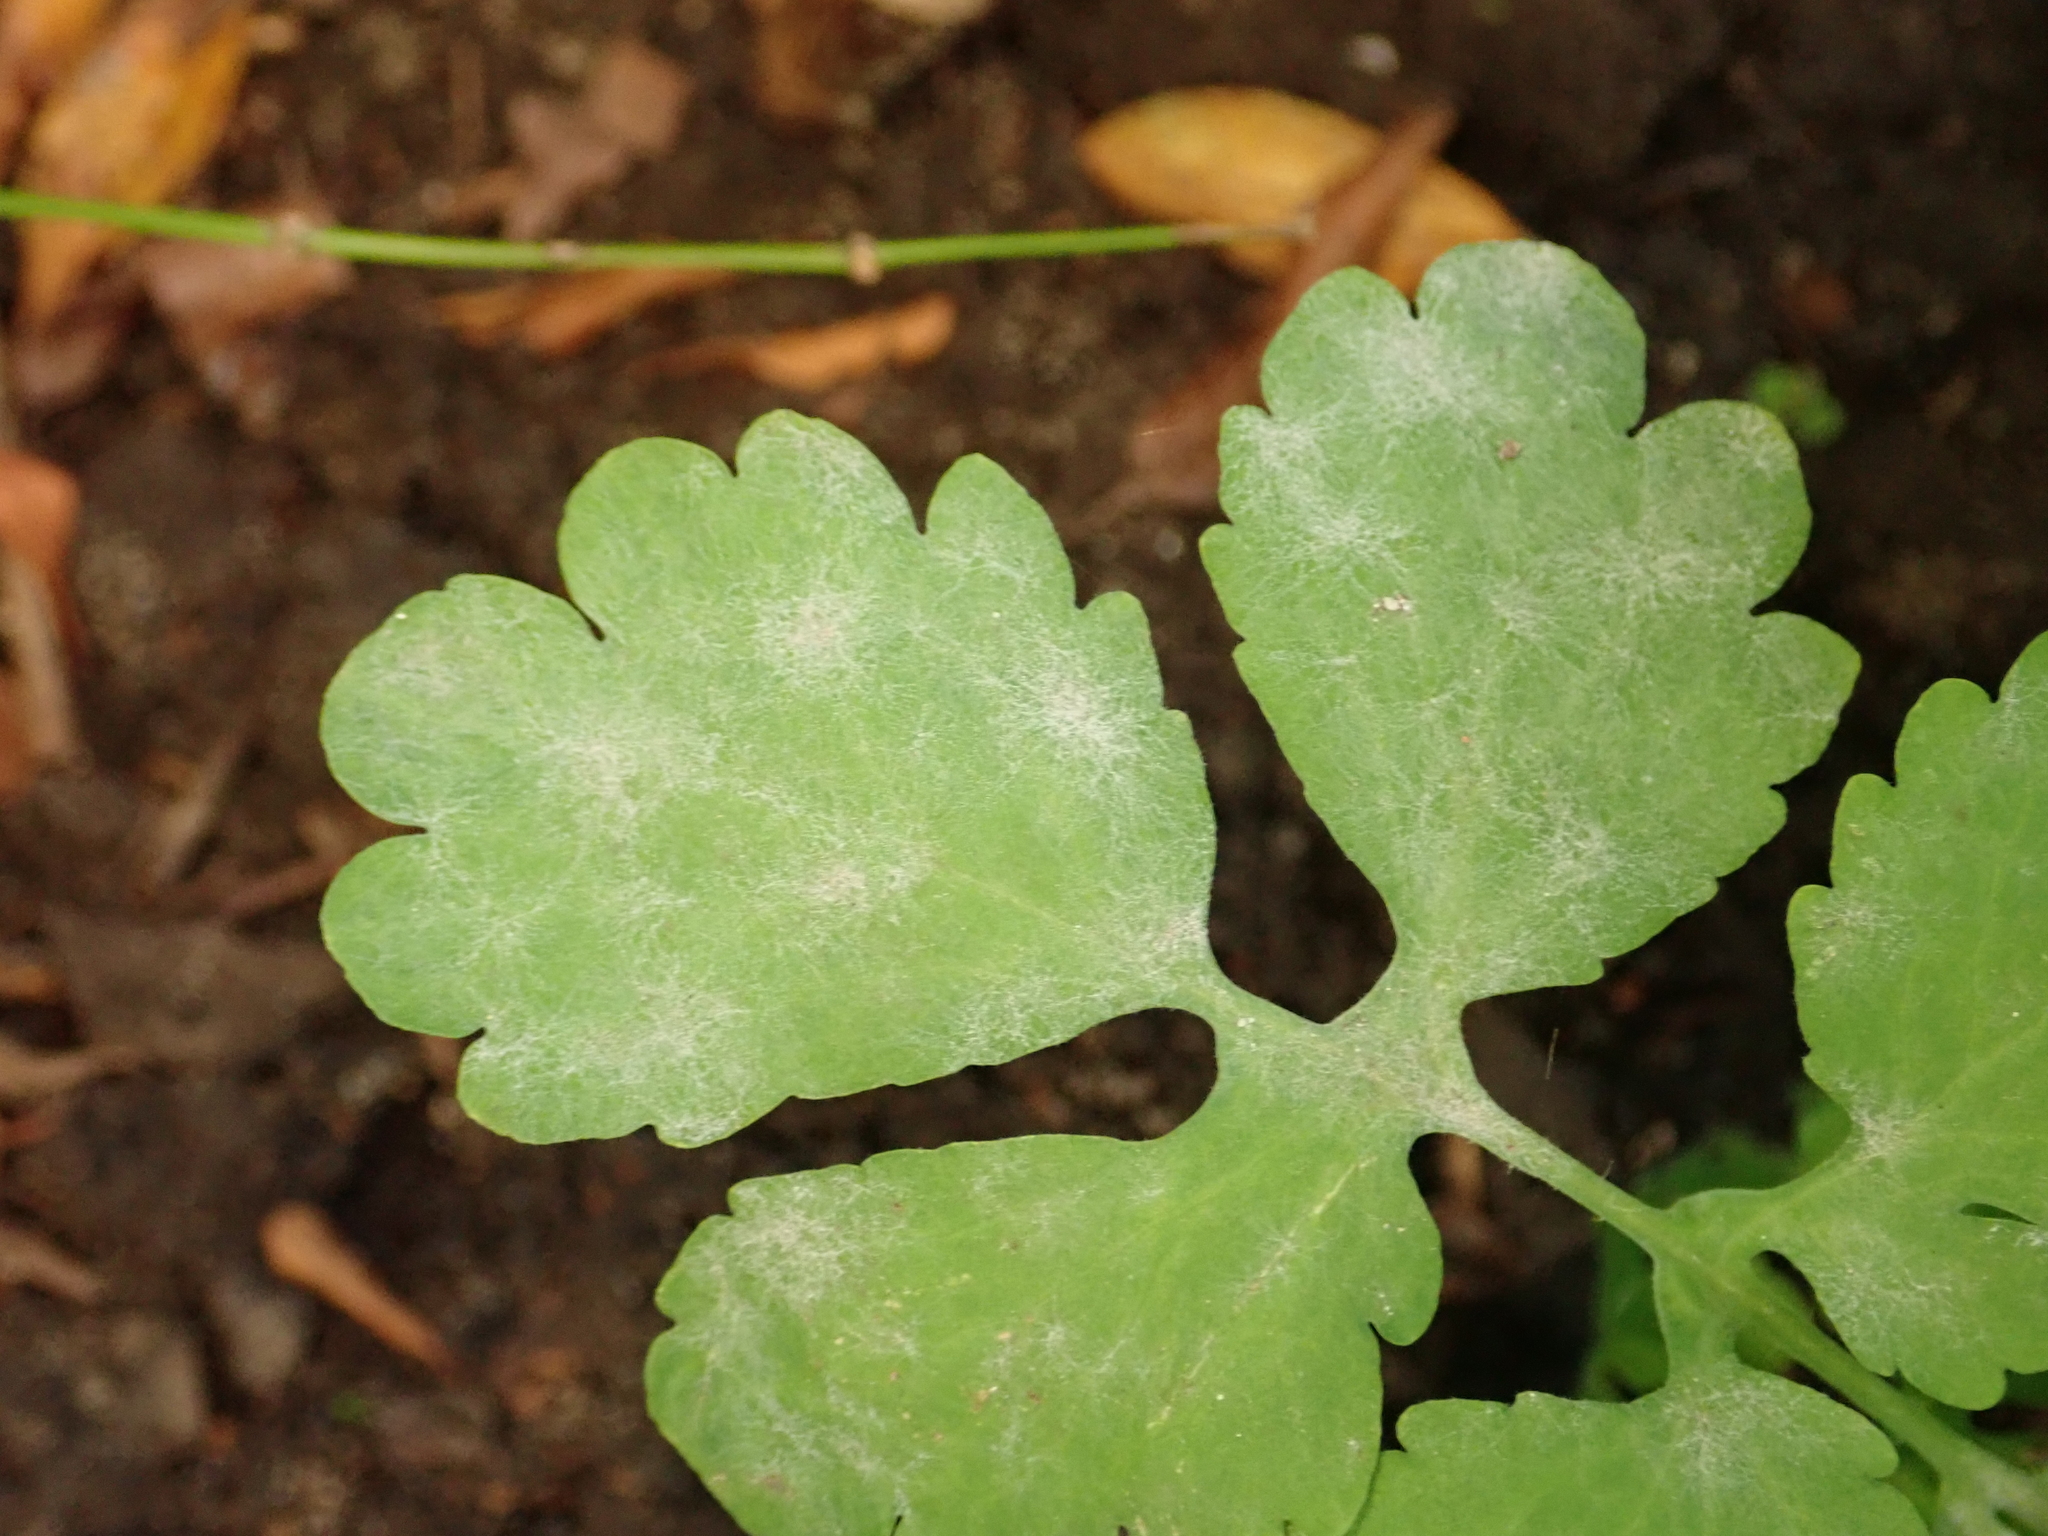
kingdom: Fungi
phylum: Ascomycota
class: Leotiomycetes
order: Helotiales
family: Erysiphaceae
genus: Erysiphe
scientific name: Erysiphe macleayae
